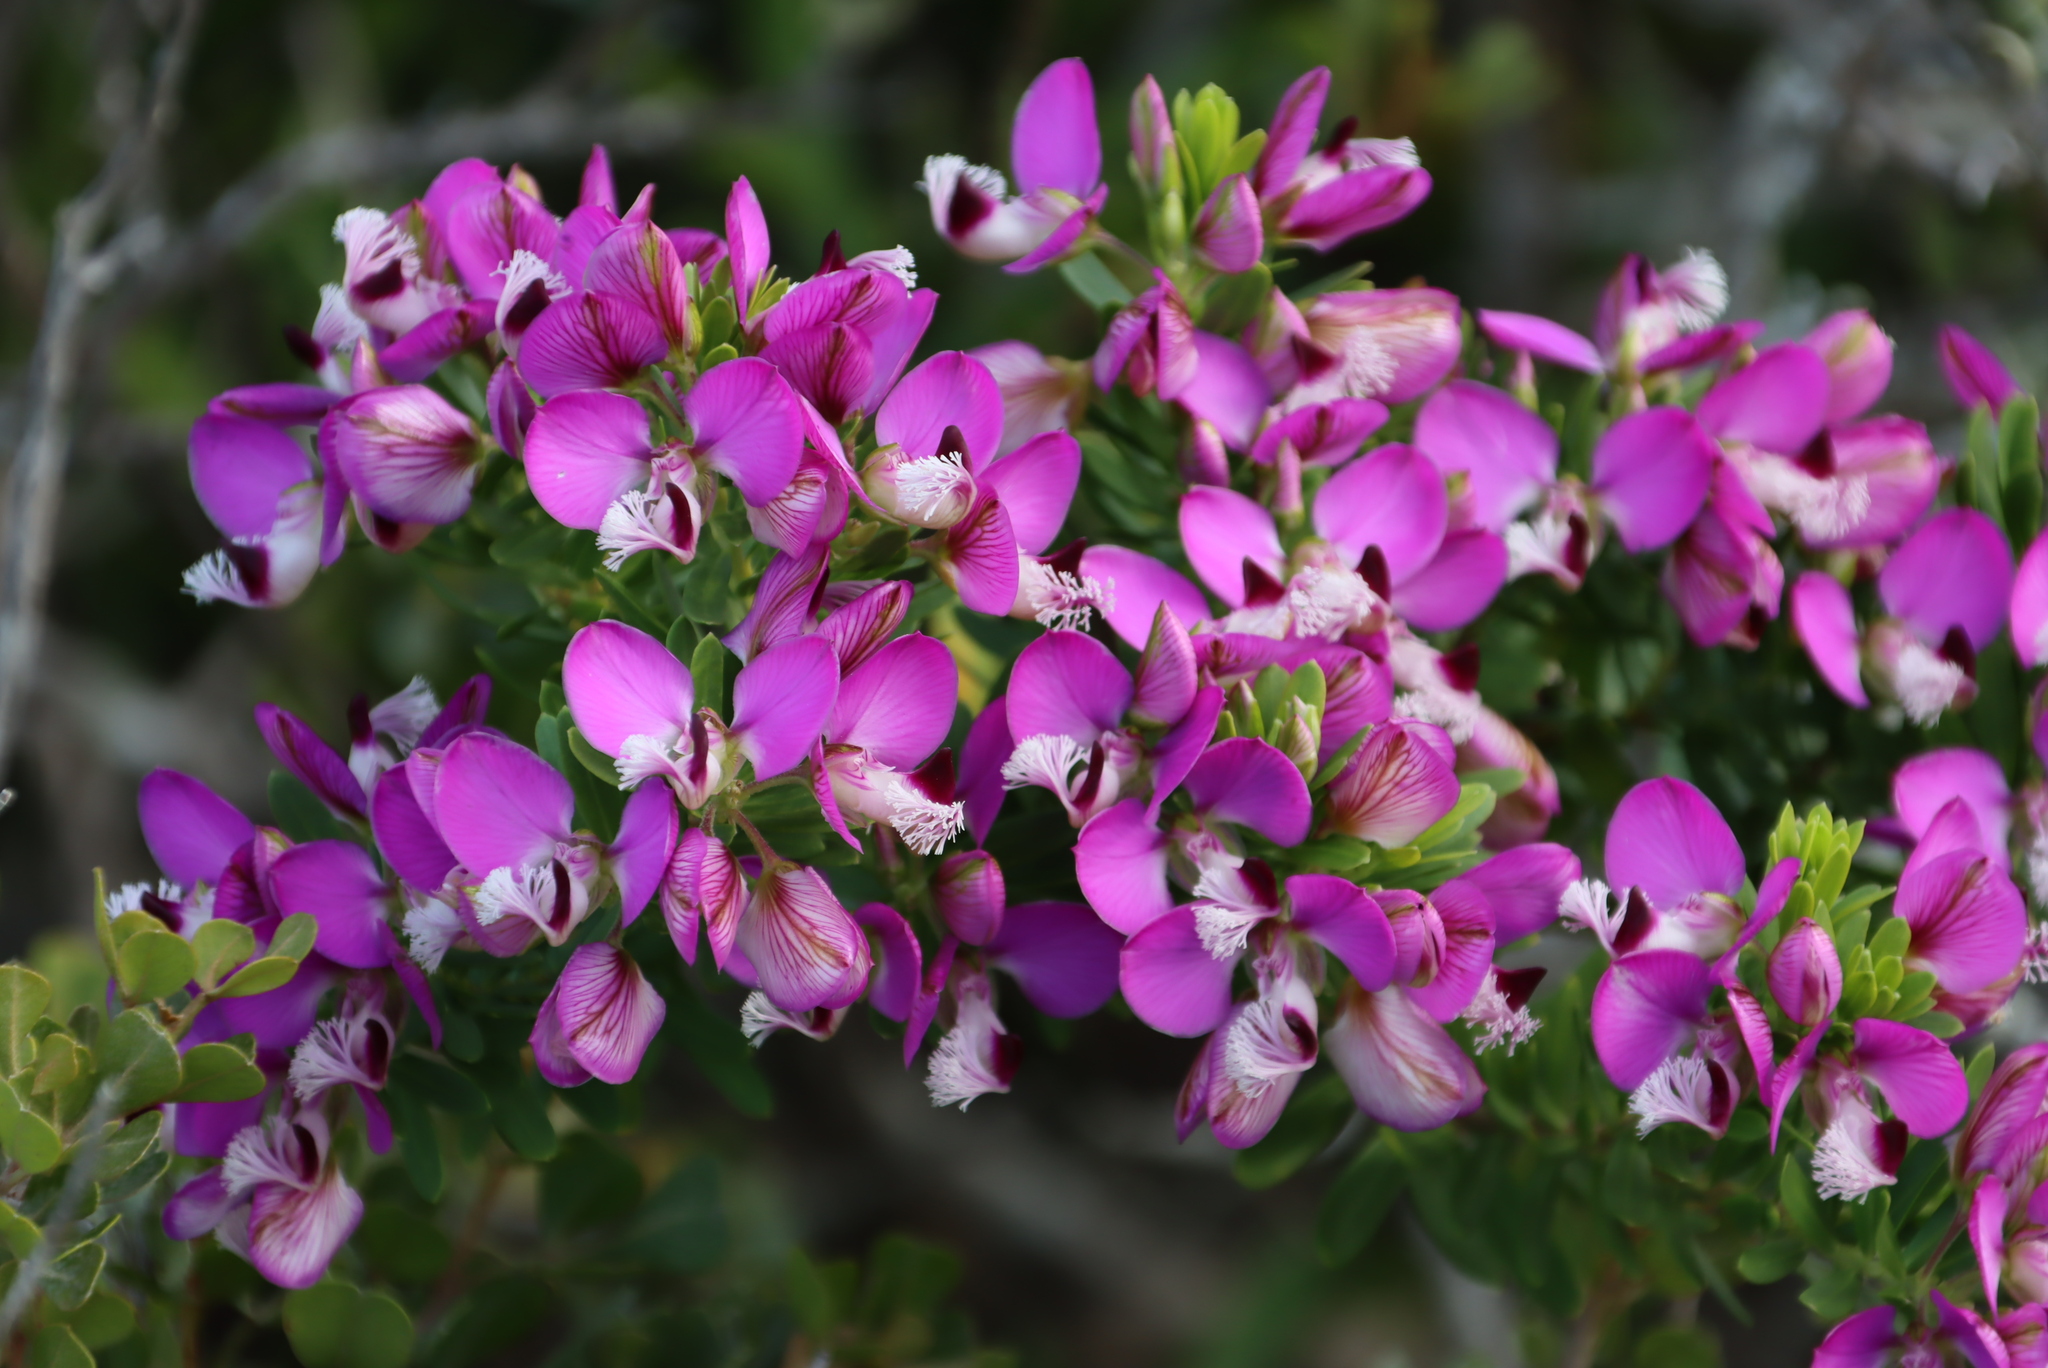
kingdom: Plantae
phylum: Tracheophyta
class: Magnoliopsida
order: Fabales
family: Polygalaceae
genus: Polygala
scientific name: Polygala myrtifolia
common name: Myrtle-leaf milkwort
